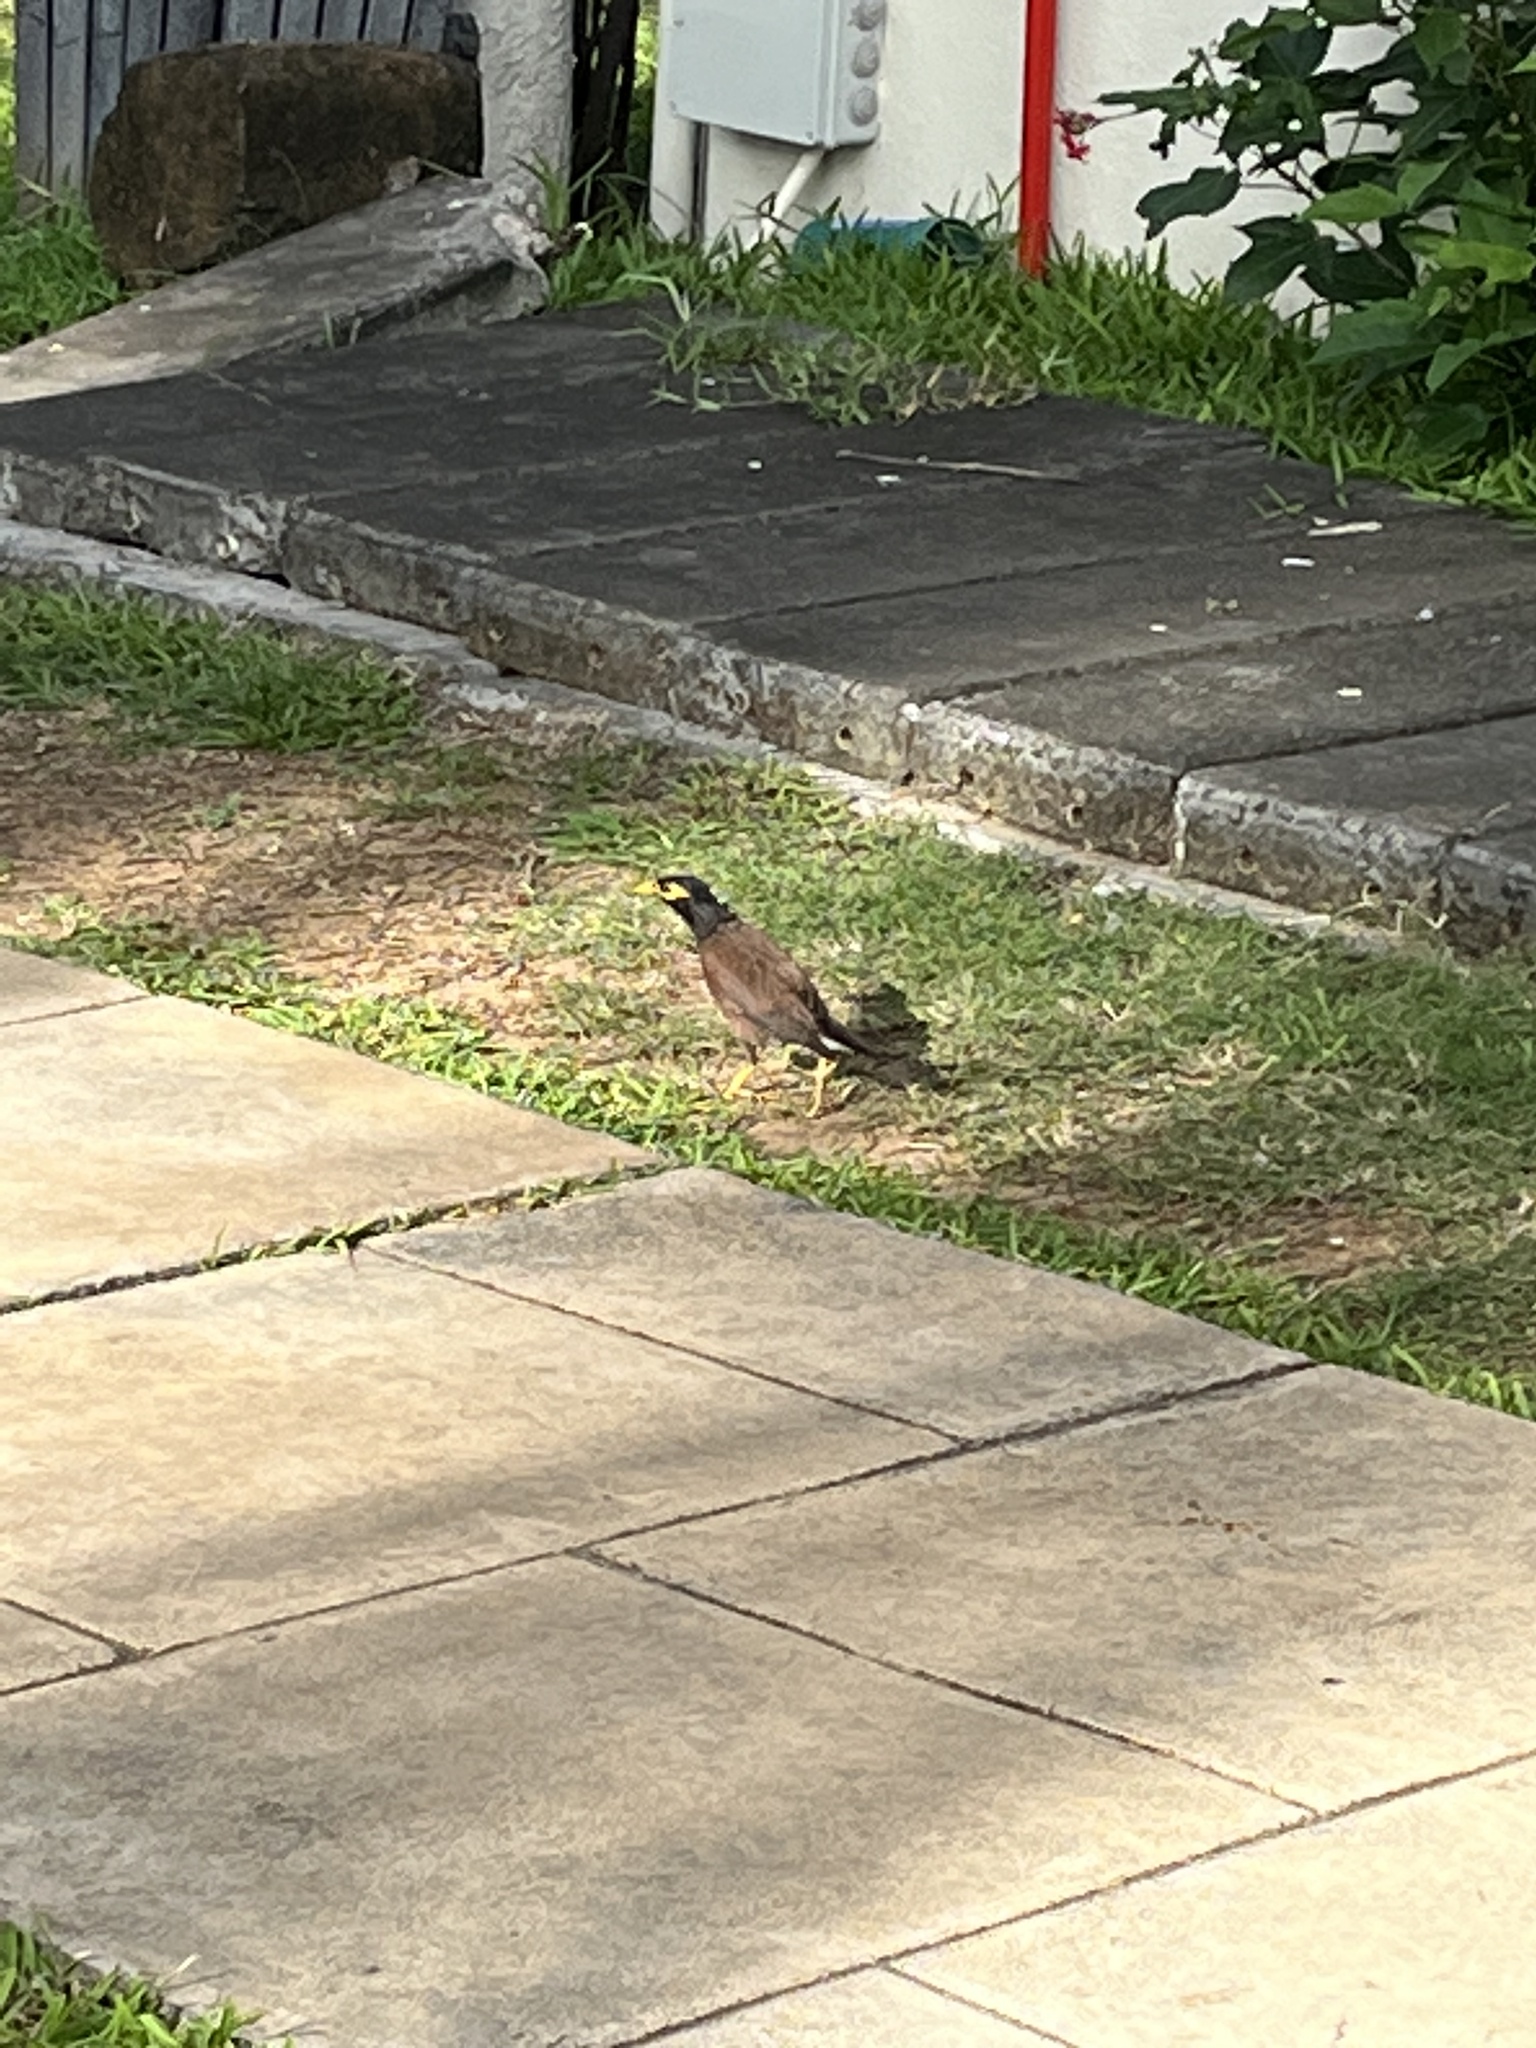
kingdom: Animalia
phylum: Chordata
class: Aves
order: Passeriformes
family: Sturnidae
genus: Acridotheres
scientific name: Acridotheres tristis
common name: Common myna
